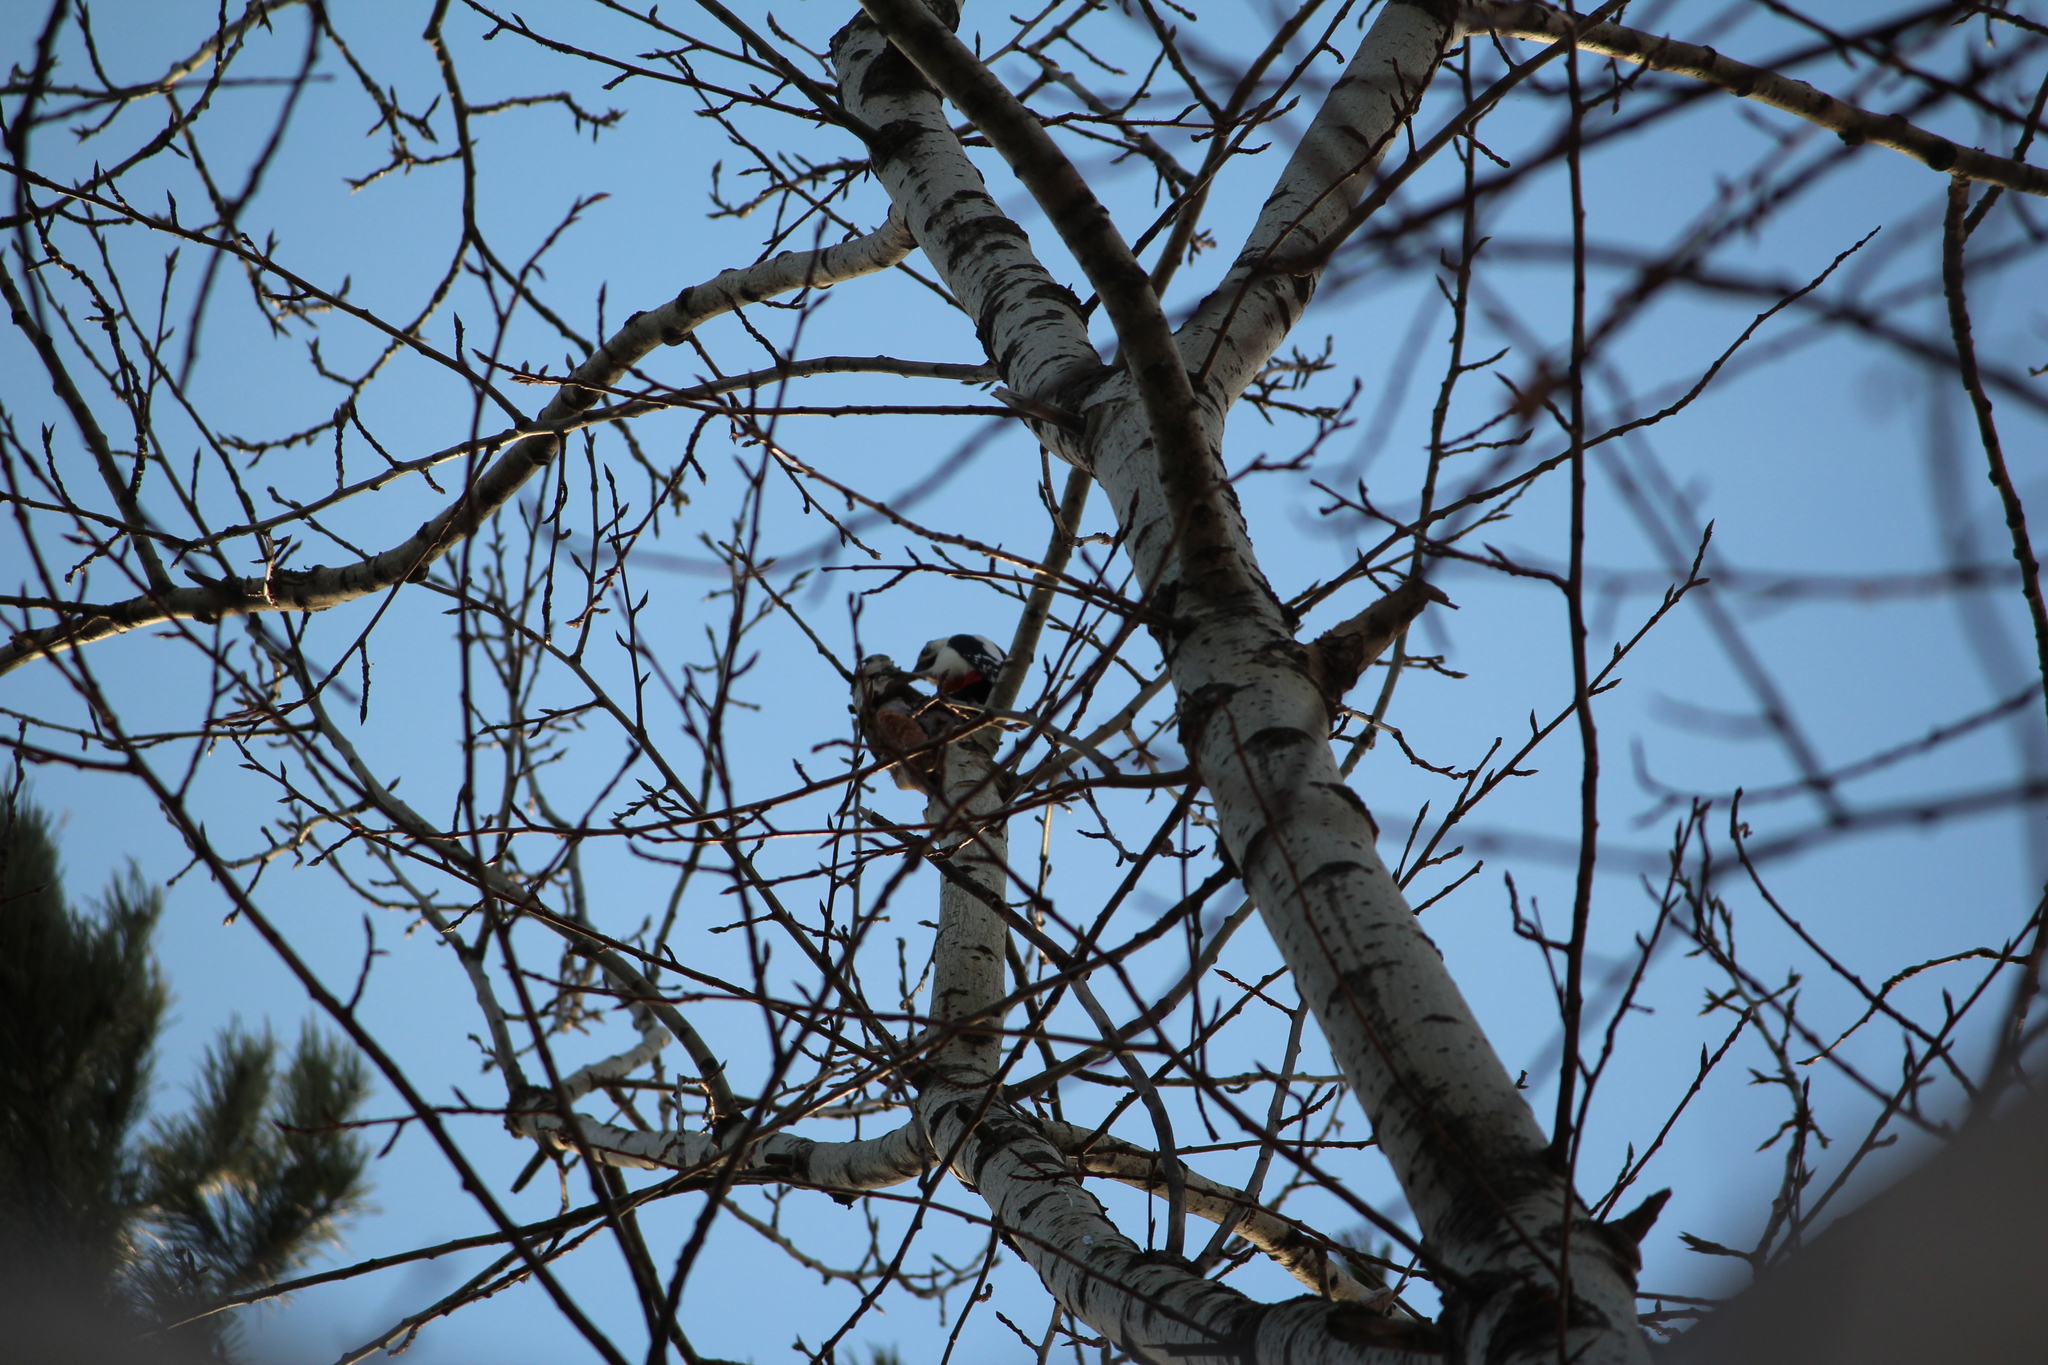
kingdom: Animalia
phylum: Chordata
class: Aves
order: Piciformes
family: Picidae
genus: Dendrocopos
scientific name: Dendrocopos major
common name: Great spotted woodpecker
